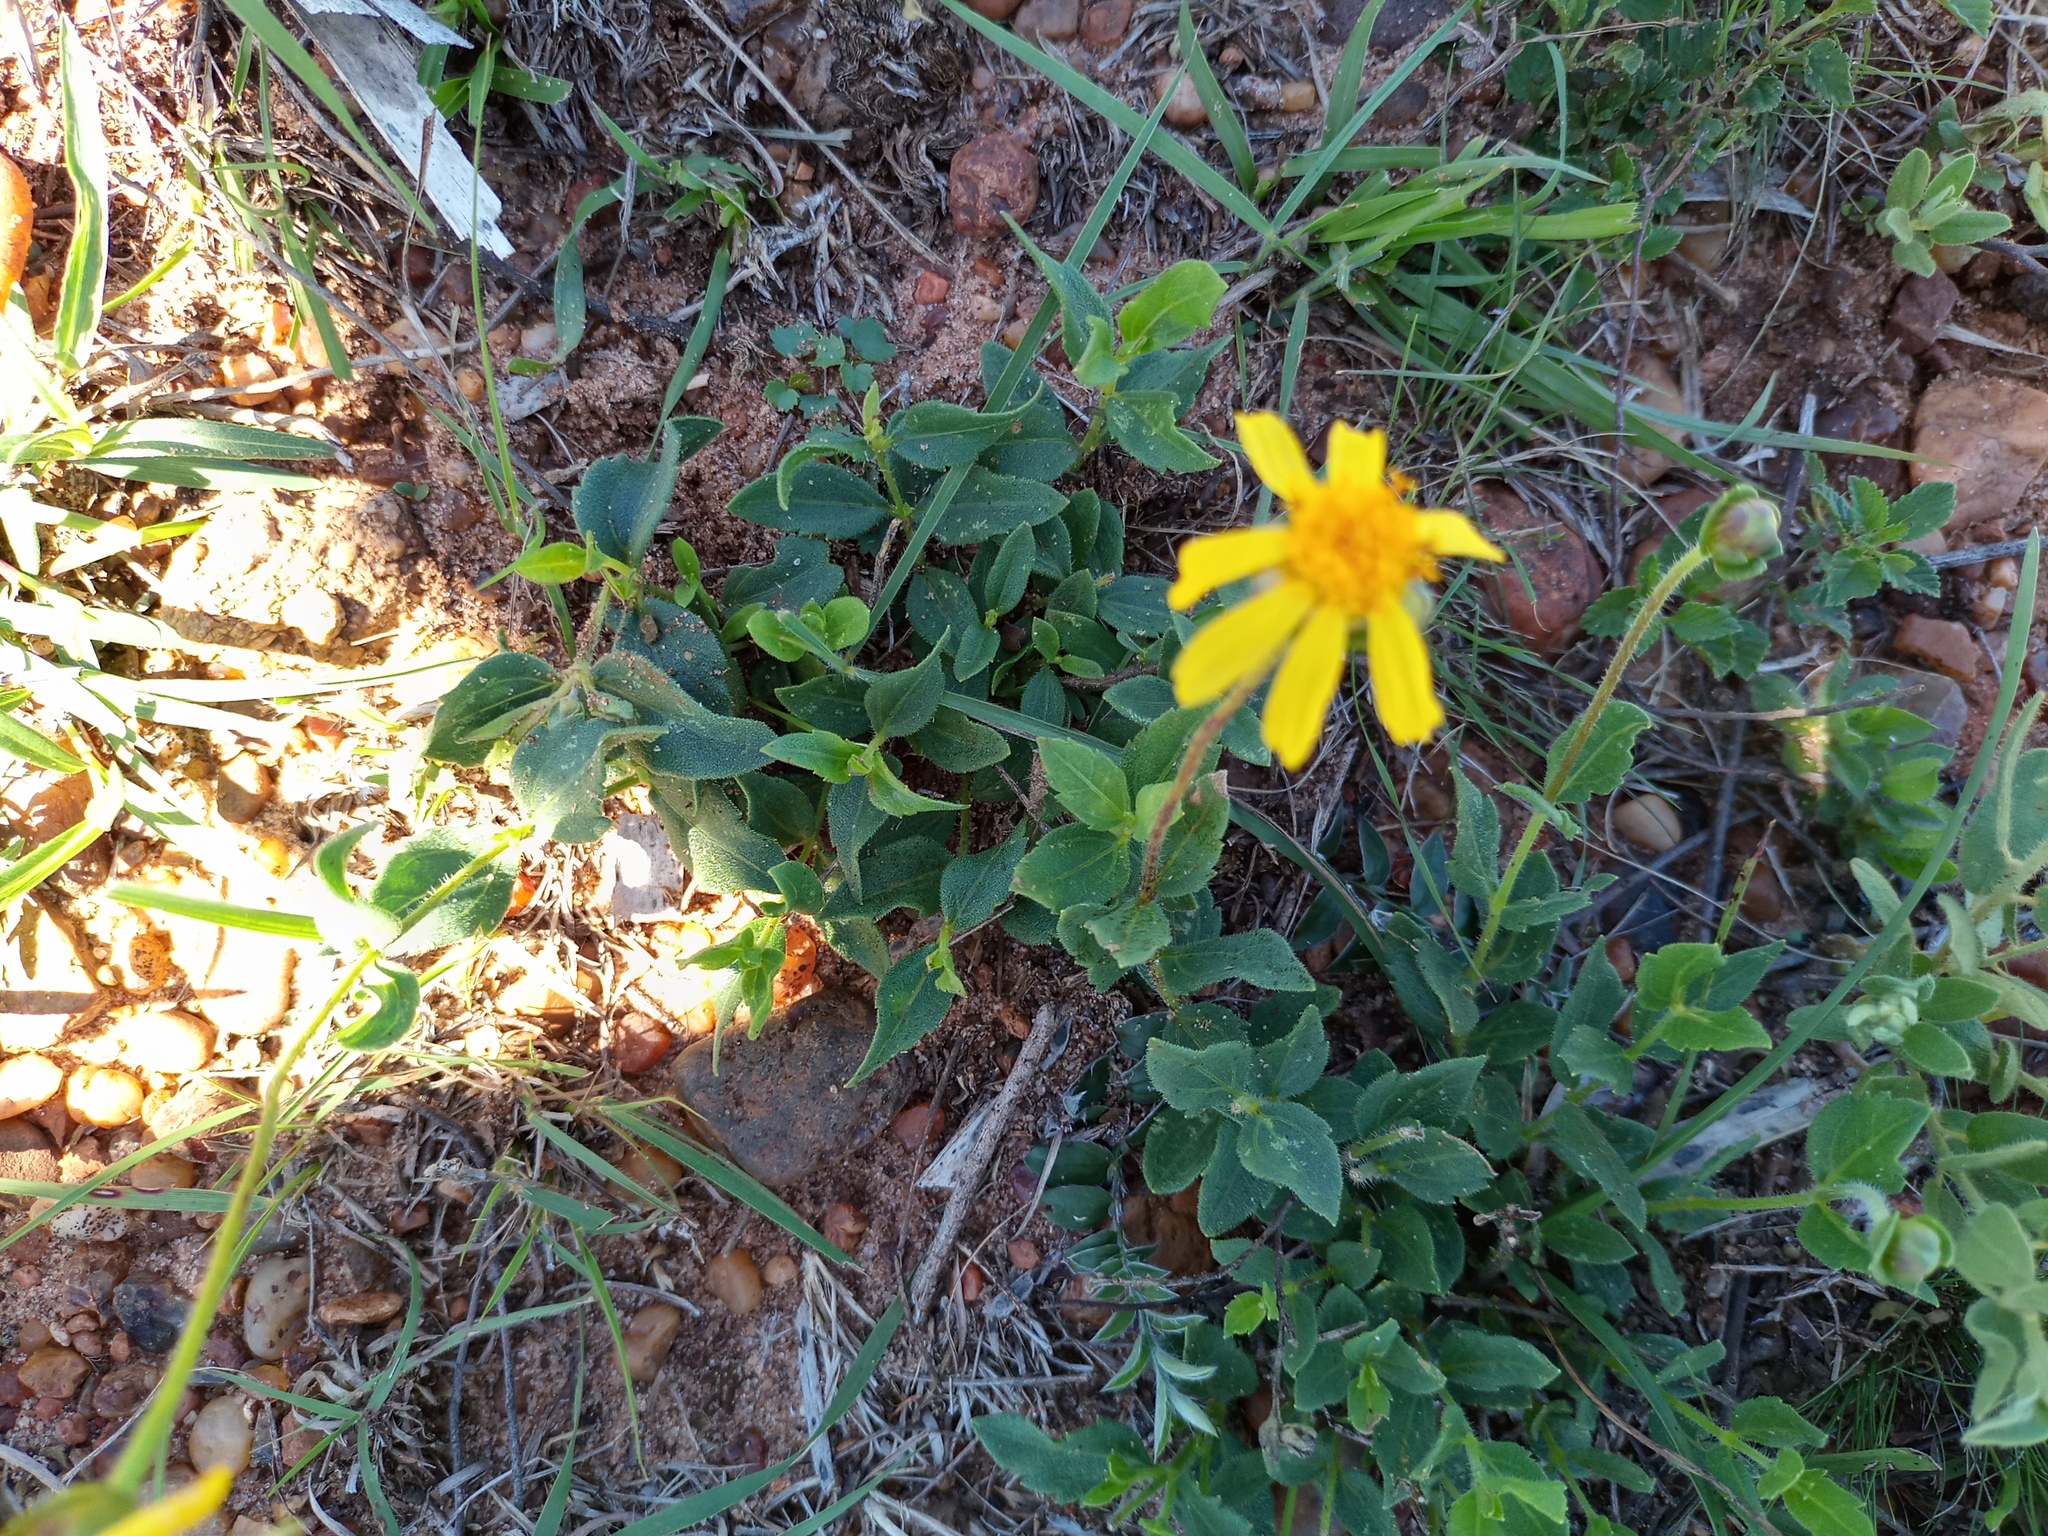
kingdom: Plantae
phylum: Tracheophyta
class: Magnoliopsida
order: Asterales
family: Asteraceae
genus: Calea
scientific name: Calea uniflora
